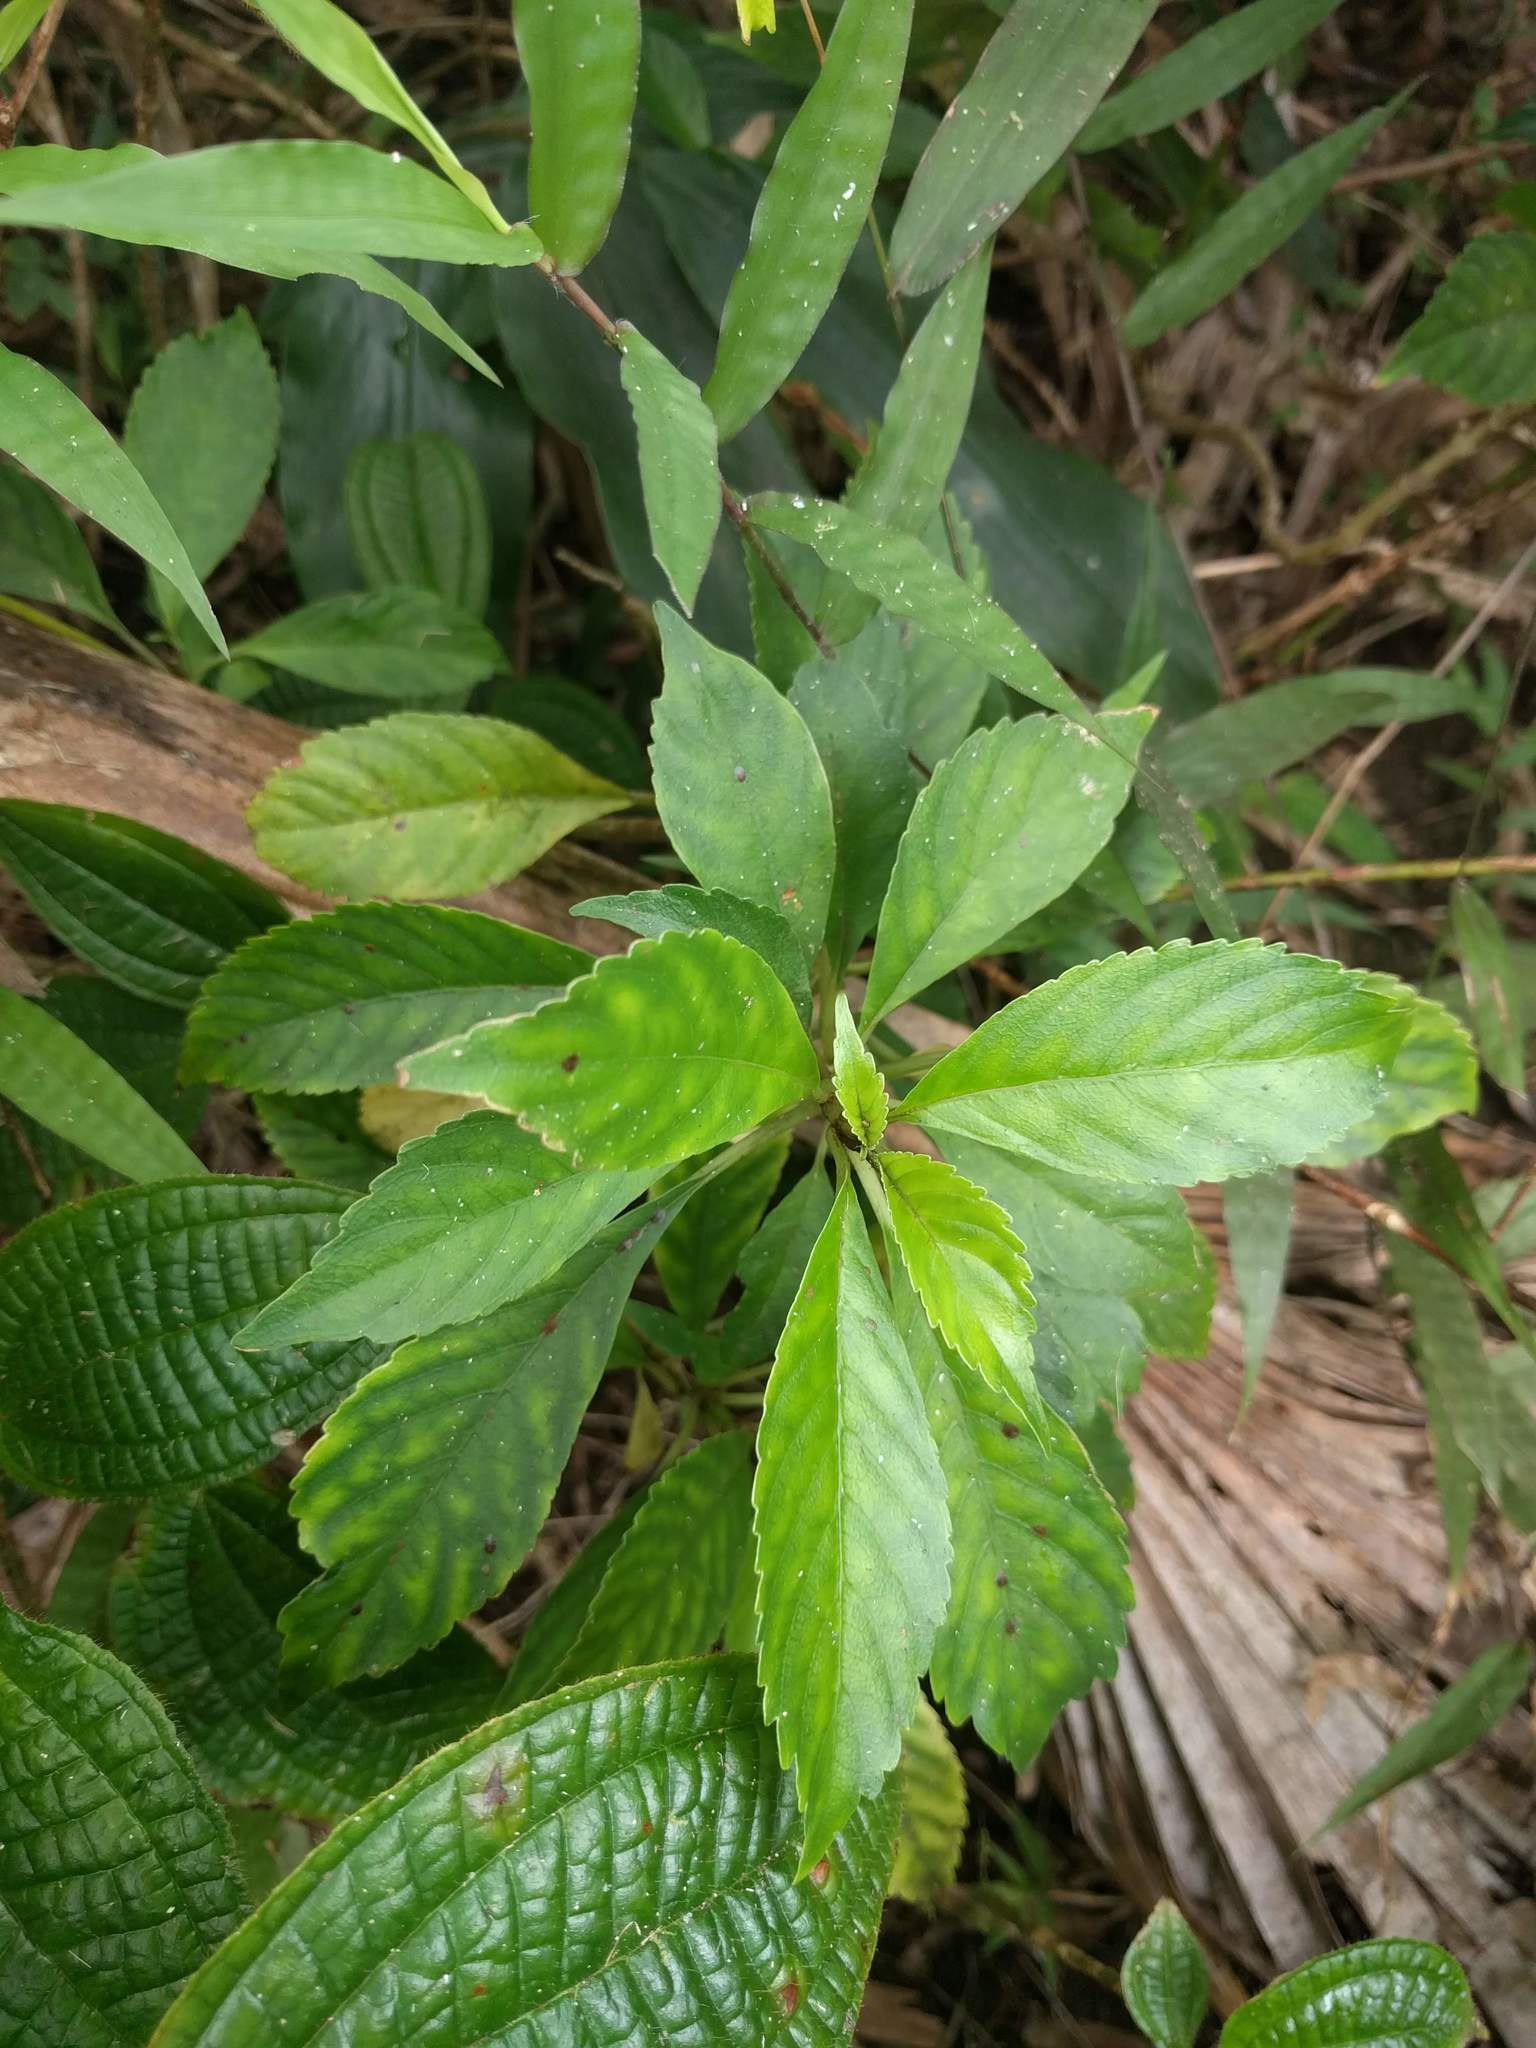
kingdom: Plantae
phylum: Tracheophyta
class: Magnoliopsida
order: Lamiales
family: Gesneriaceae
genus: Cyrtandra
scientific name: Cyrtandra paludosa
